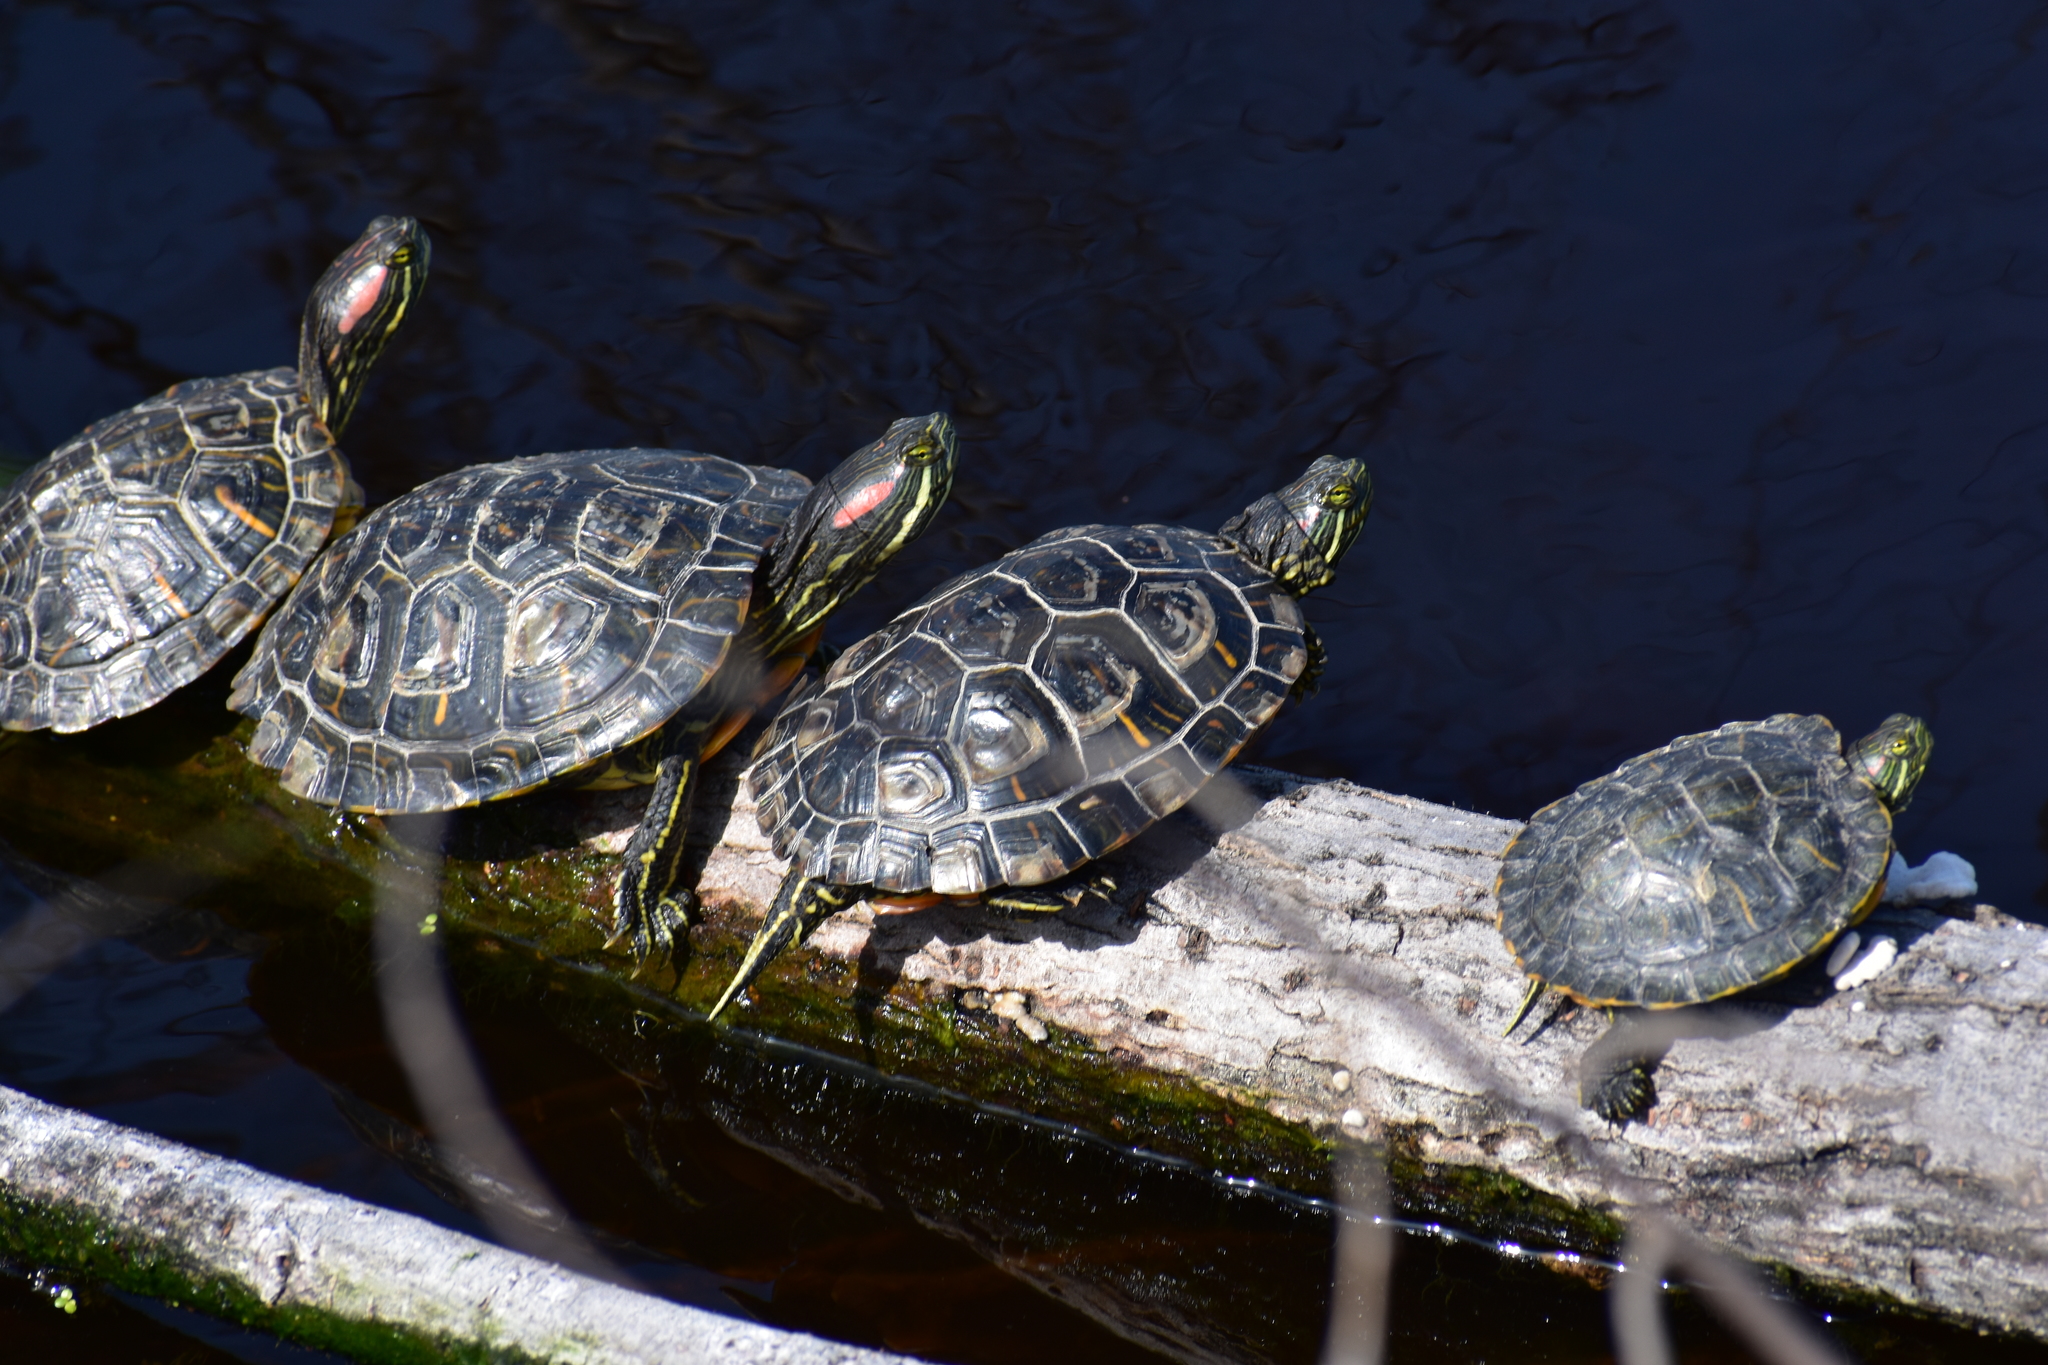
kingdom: Animalia
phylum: Chordata
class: Testudines
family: Emydidae
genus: Trachemys
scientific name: Trachemys scripta
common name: Slider
